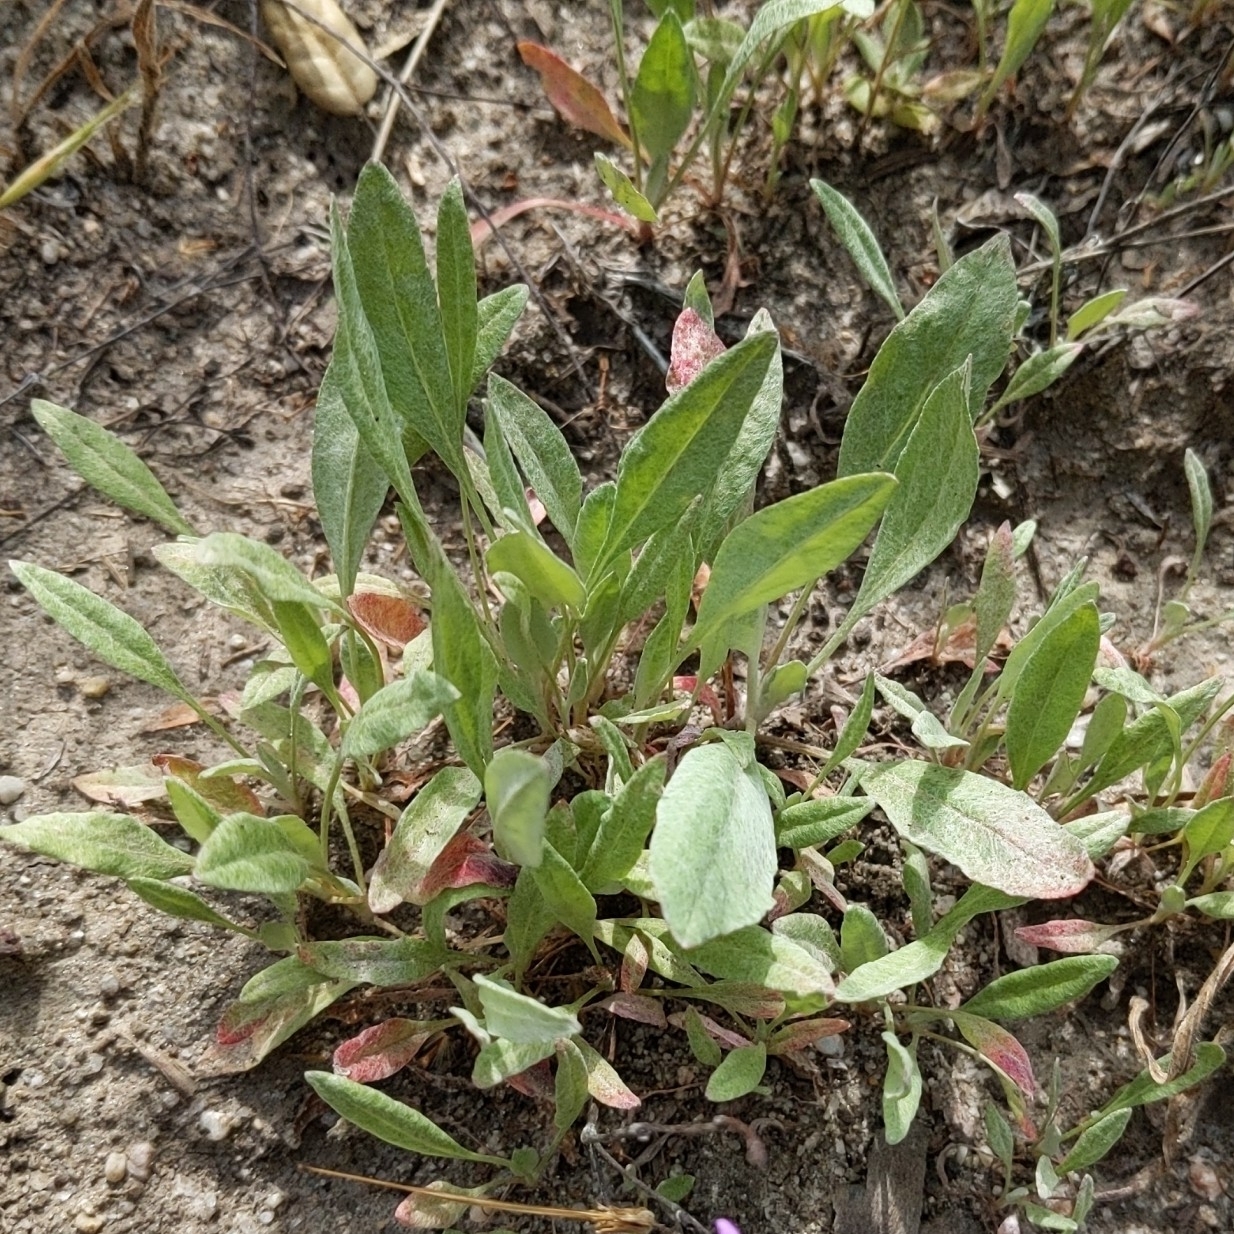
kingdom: Plantae
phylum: Tracheophyta
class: Magnoliopsida
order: Caryophyllales
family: Polygonaceae
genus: Eriogonum
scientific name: Eriogonum gracile
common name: Slender woolly buckwheat
